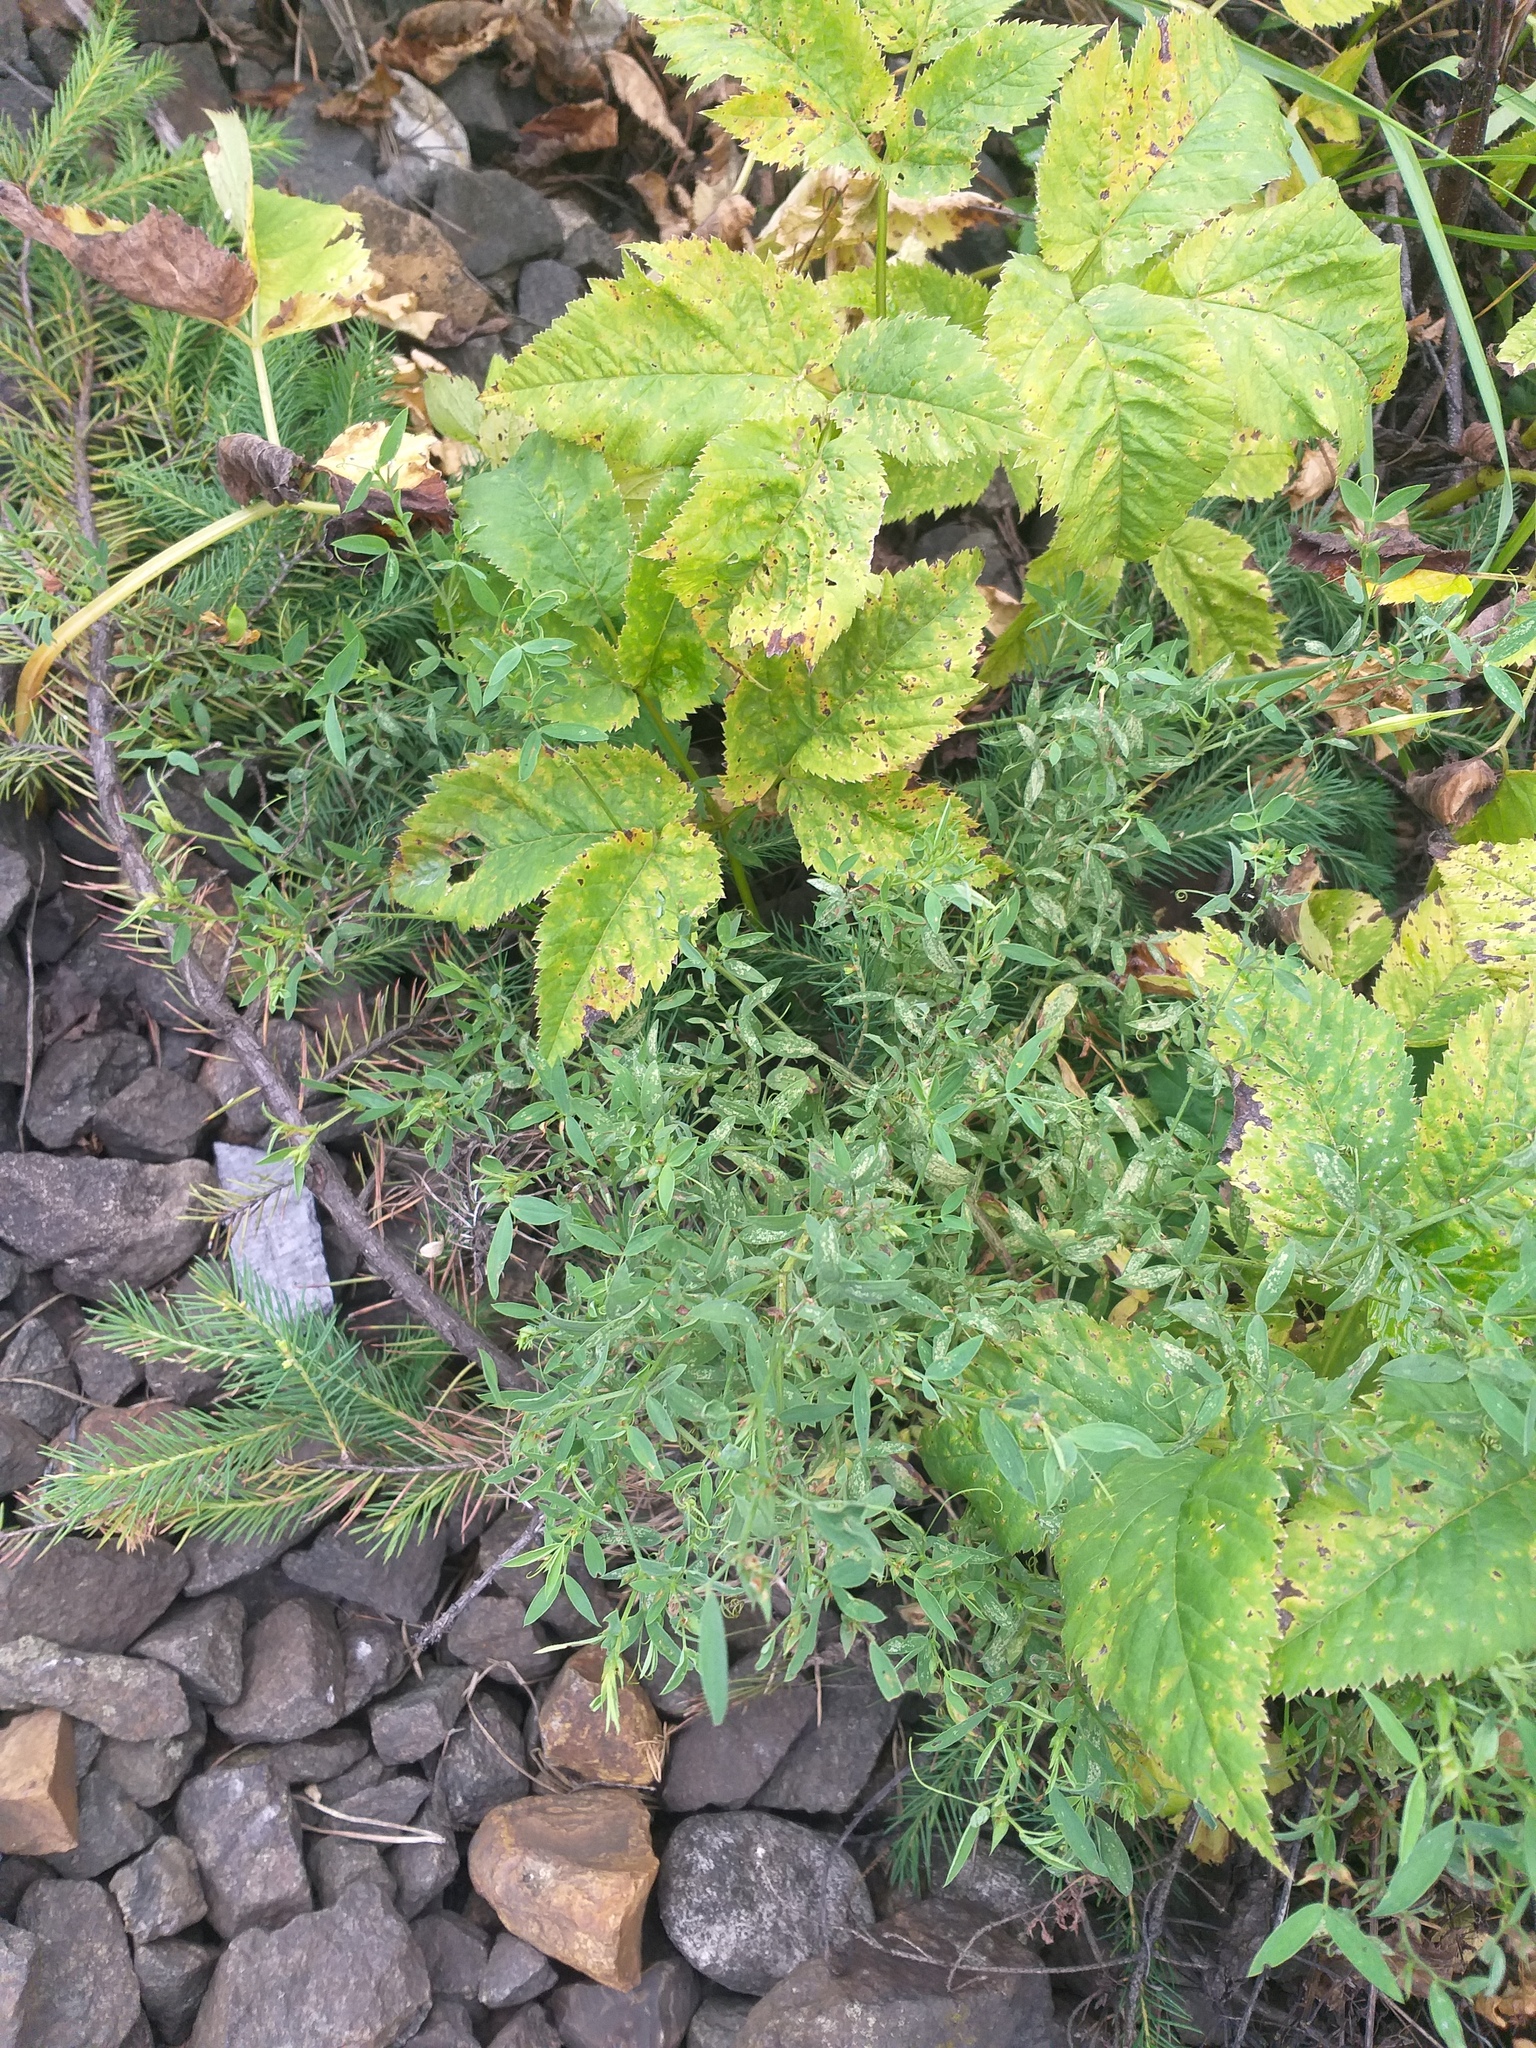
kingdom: Plantae
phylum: Tracheophyta
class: Magnoliopsida
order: Fabales
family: Fabaceae
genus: Lathyrus
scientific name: Lathyrus pratensis
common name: Meadow vetchling
